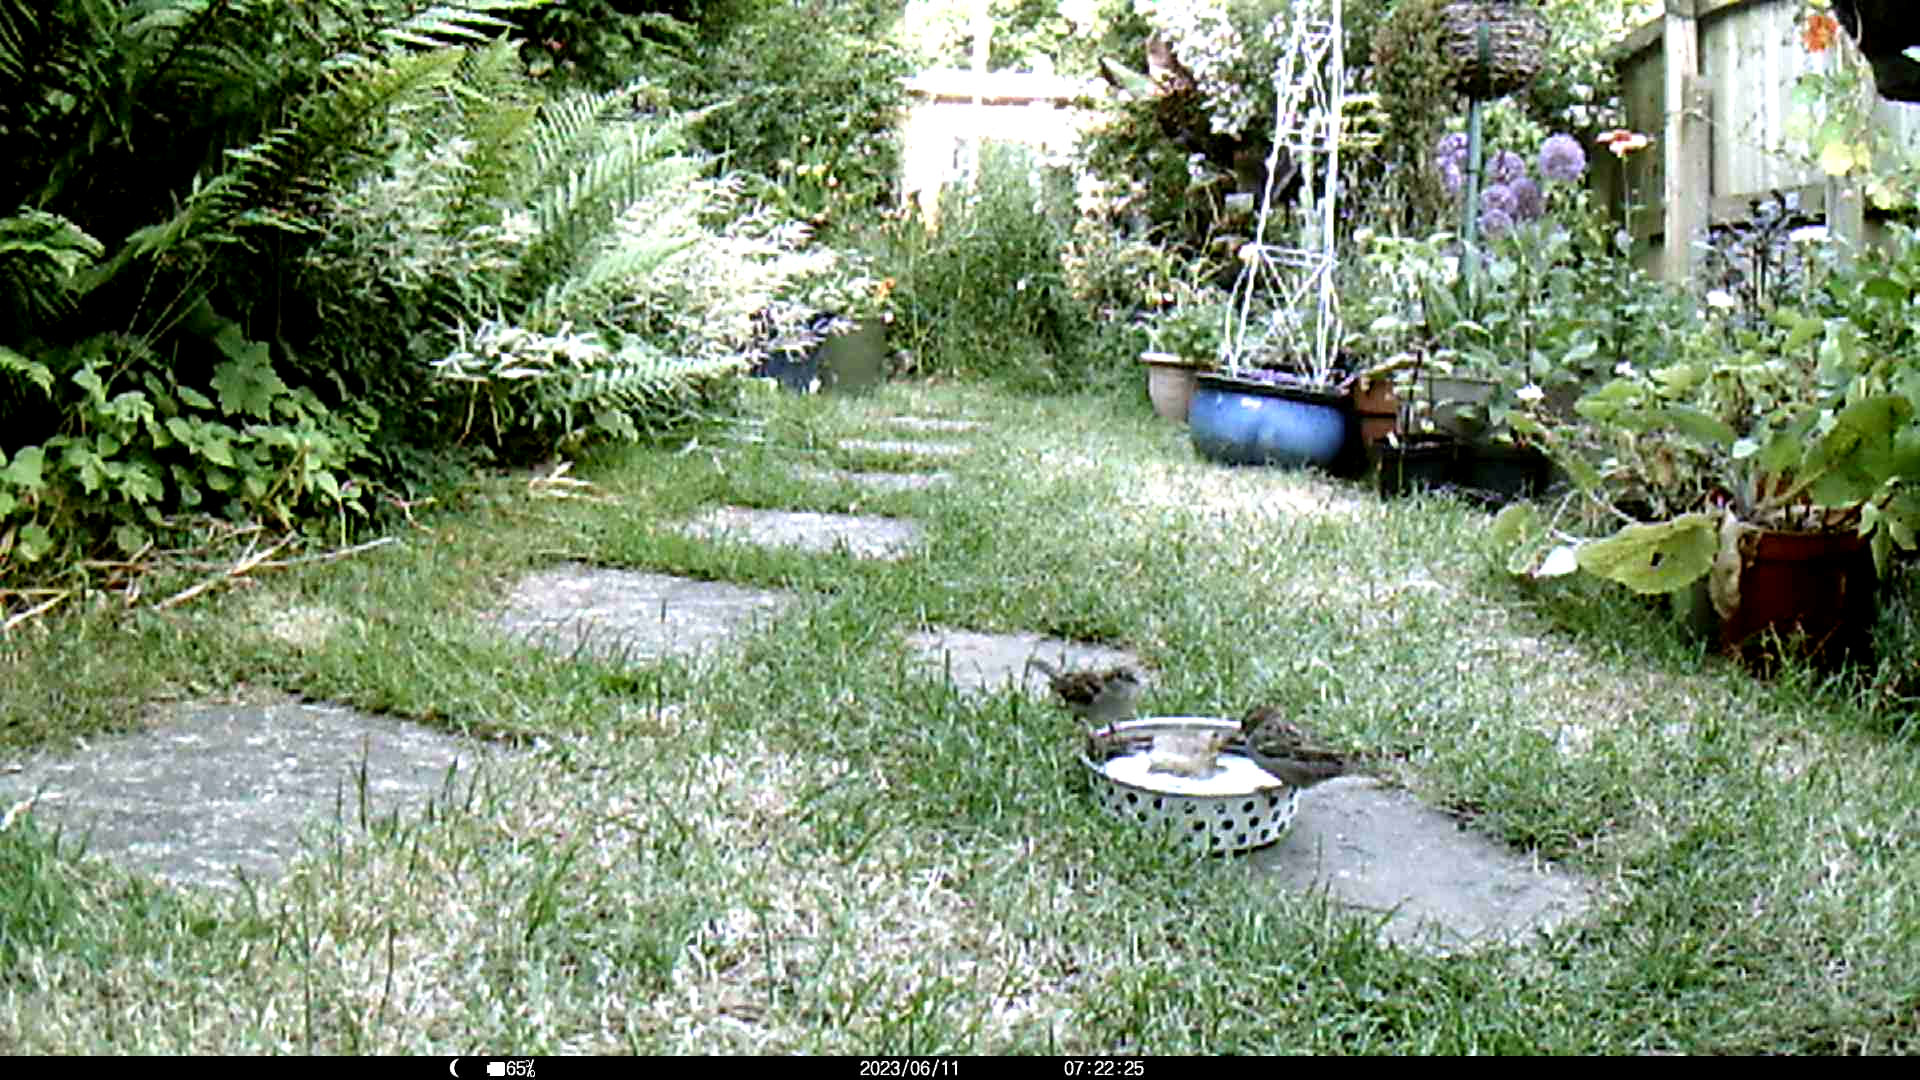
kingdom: Animalia
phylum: Chordata
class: Aves
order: Passeriformes
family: Passeridae
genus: Passer
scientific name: Passer domesticus
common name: House sparrow
